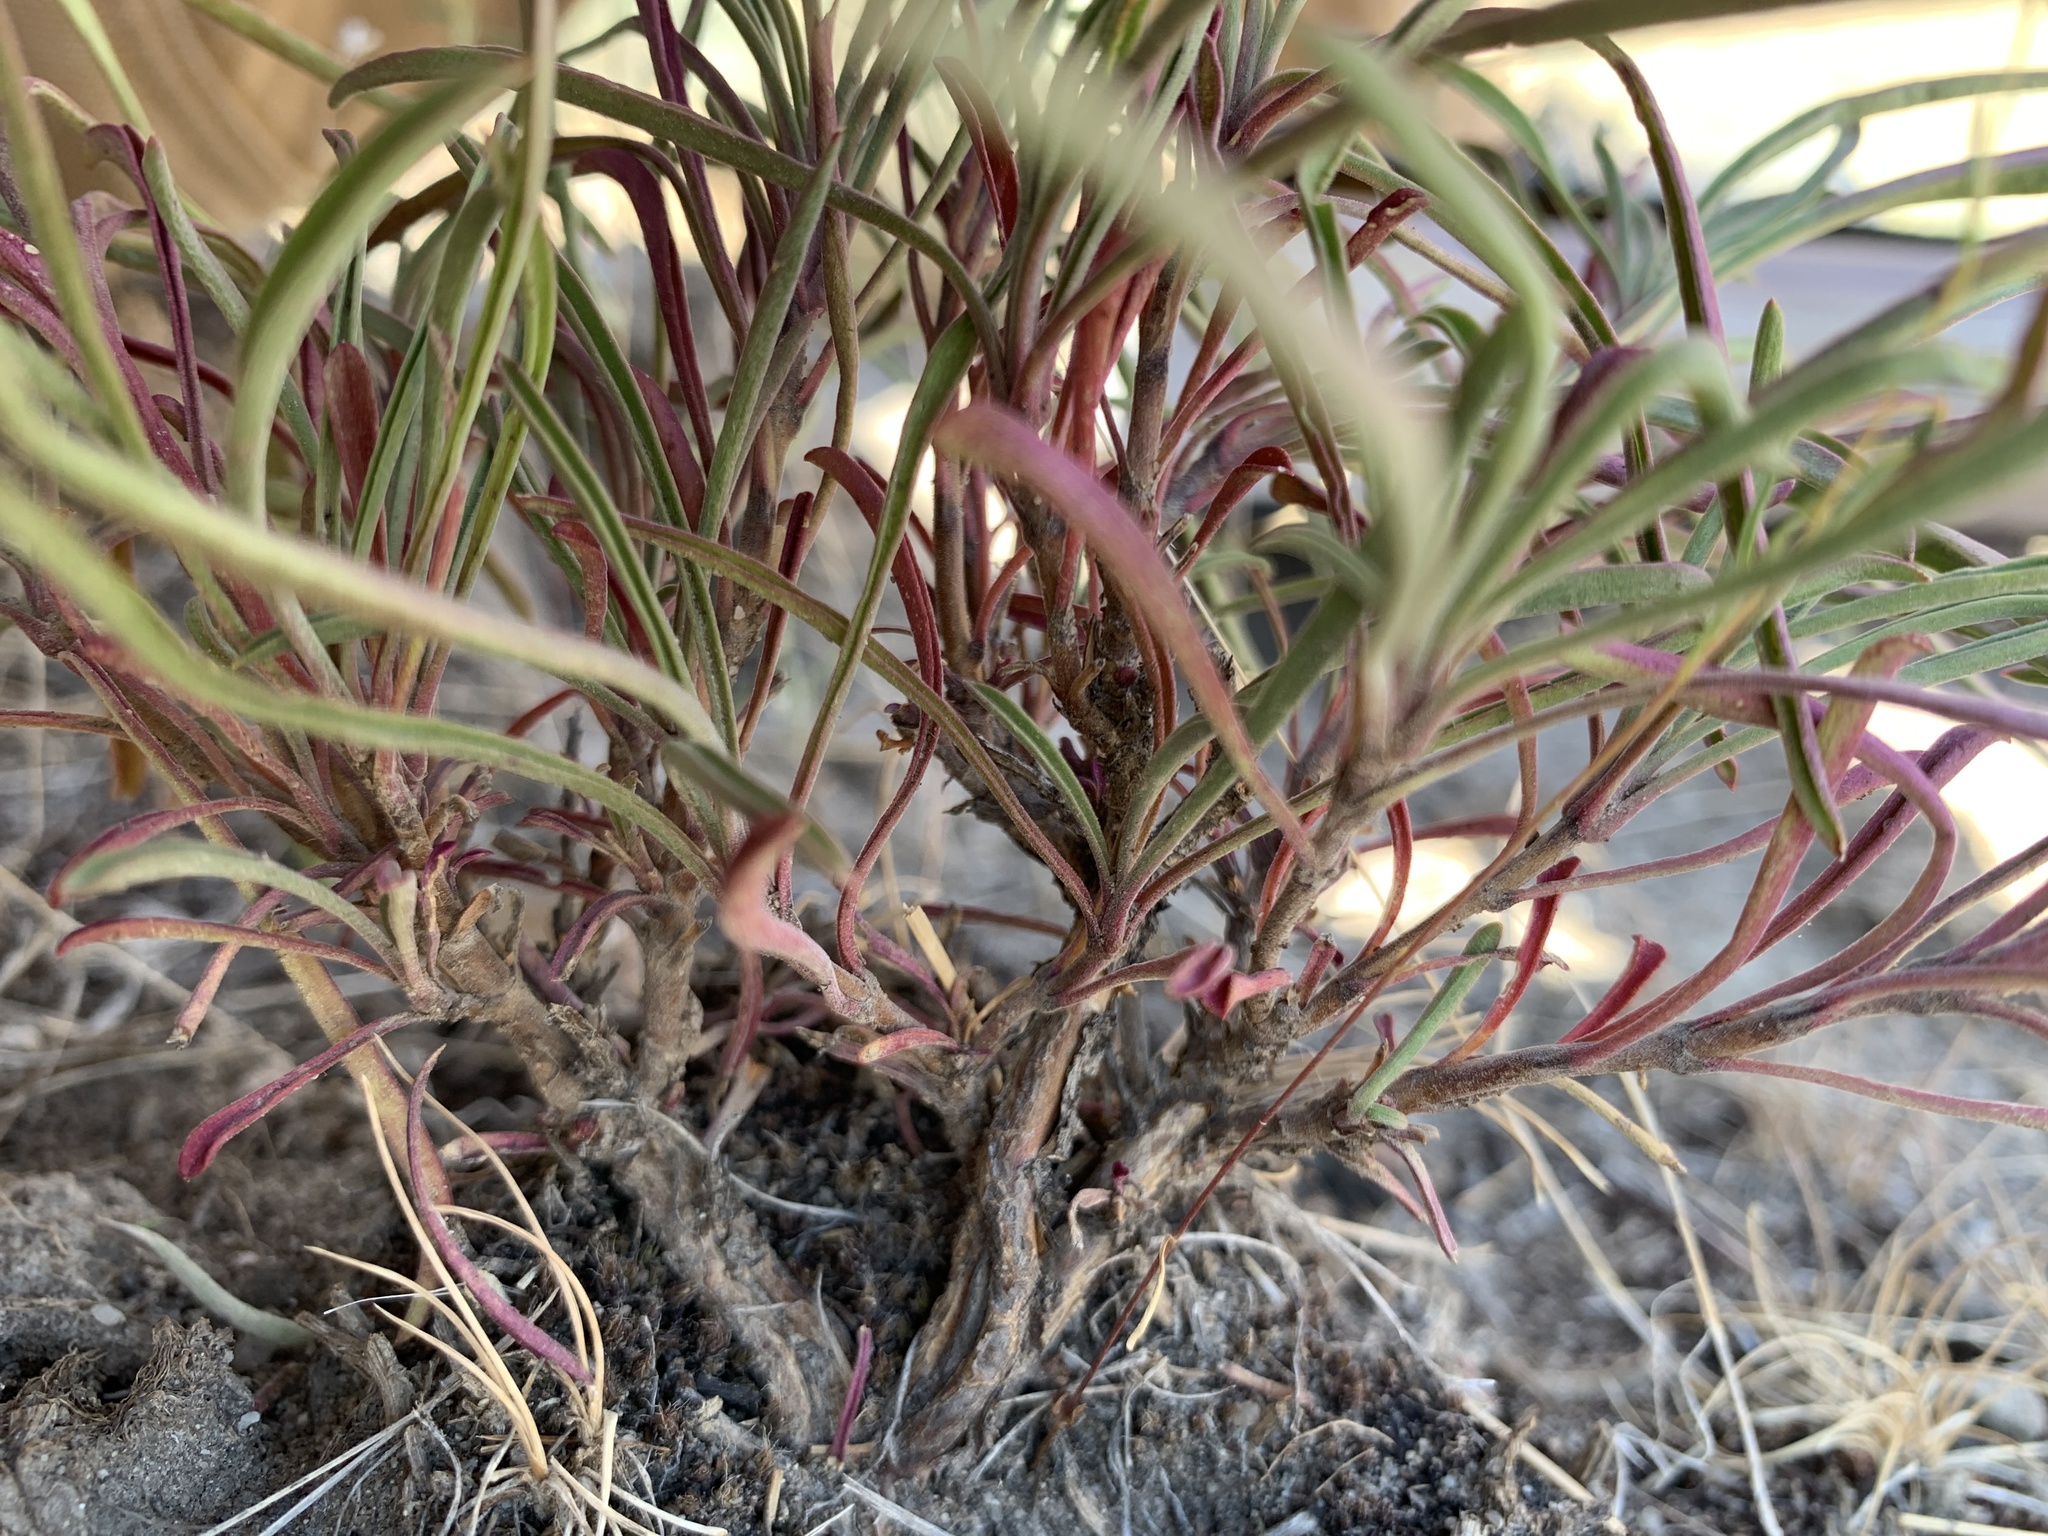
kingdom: Plantae
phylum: Tracheophyta
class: Magnoliopsida
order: Lamiales
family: Plantaginaceae
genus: Penstemon
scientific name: Penstemon gairdneri
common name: Gairdner's penstemon
